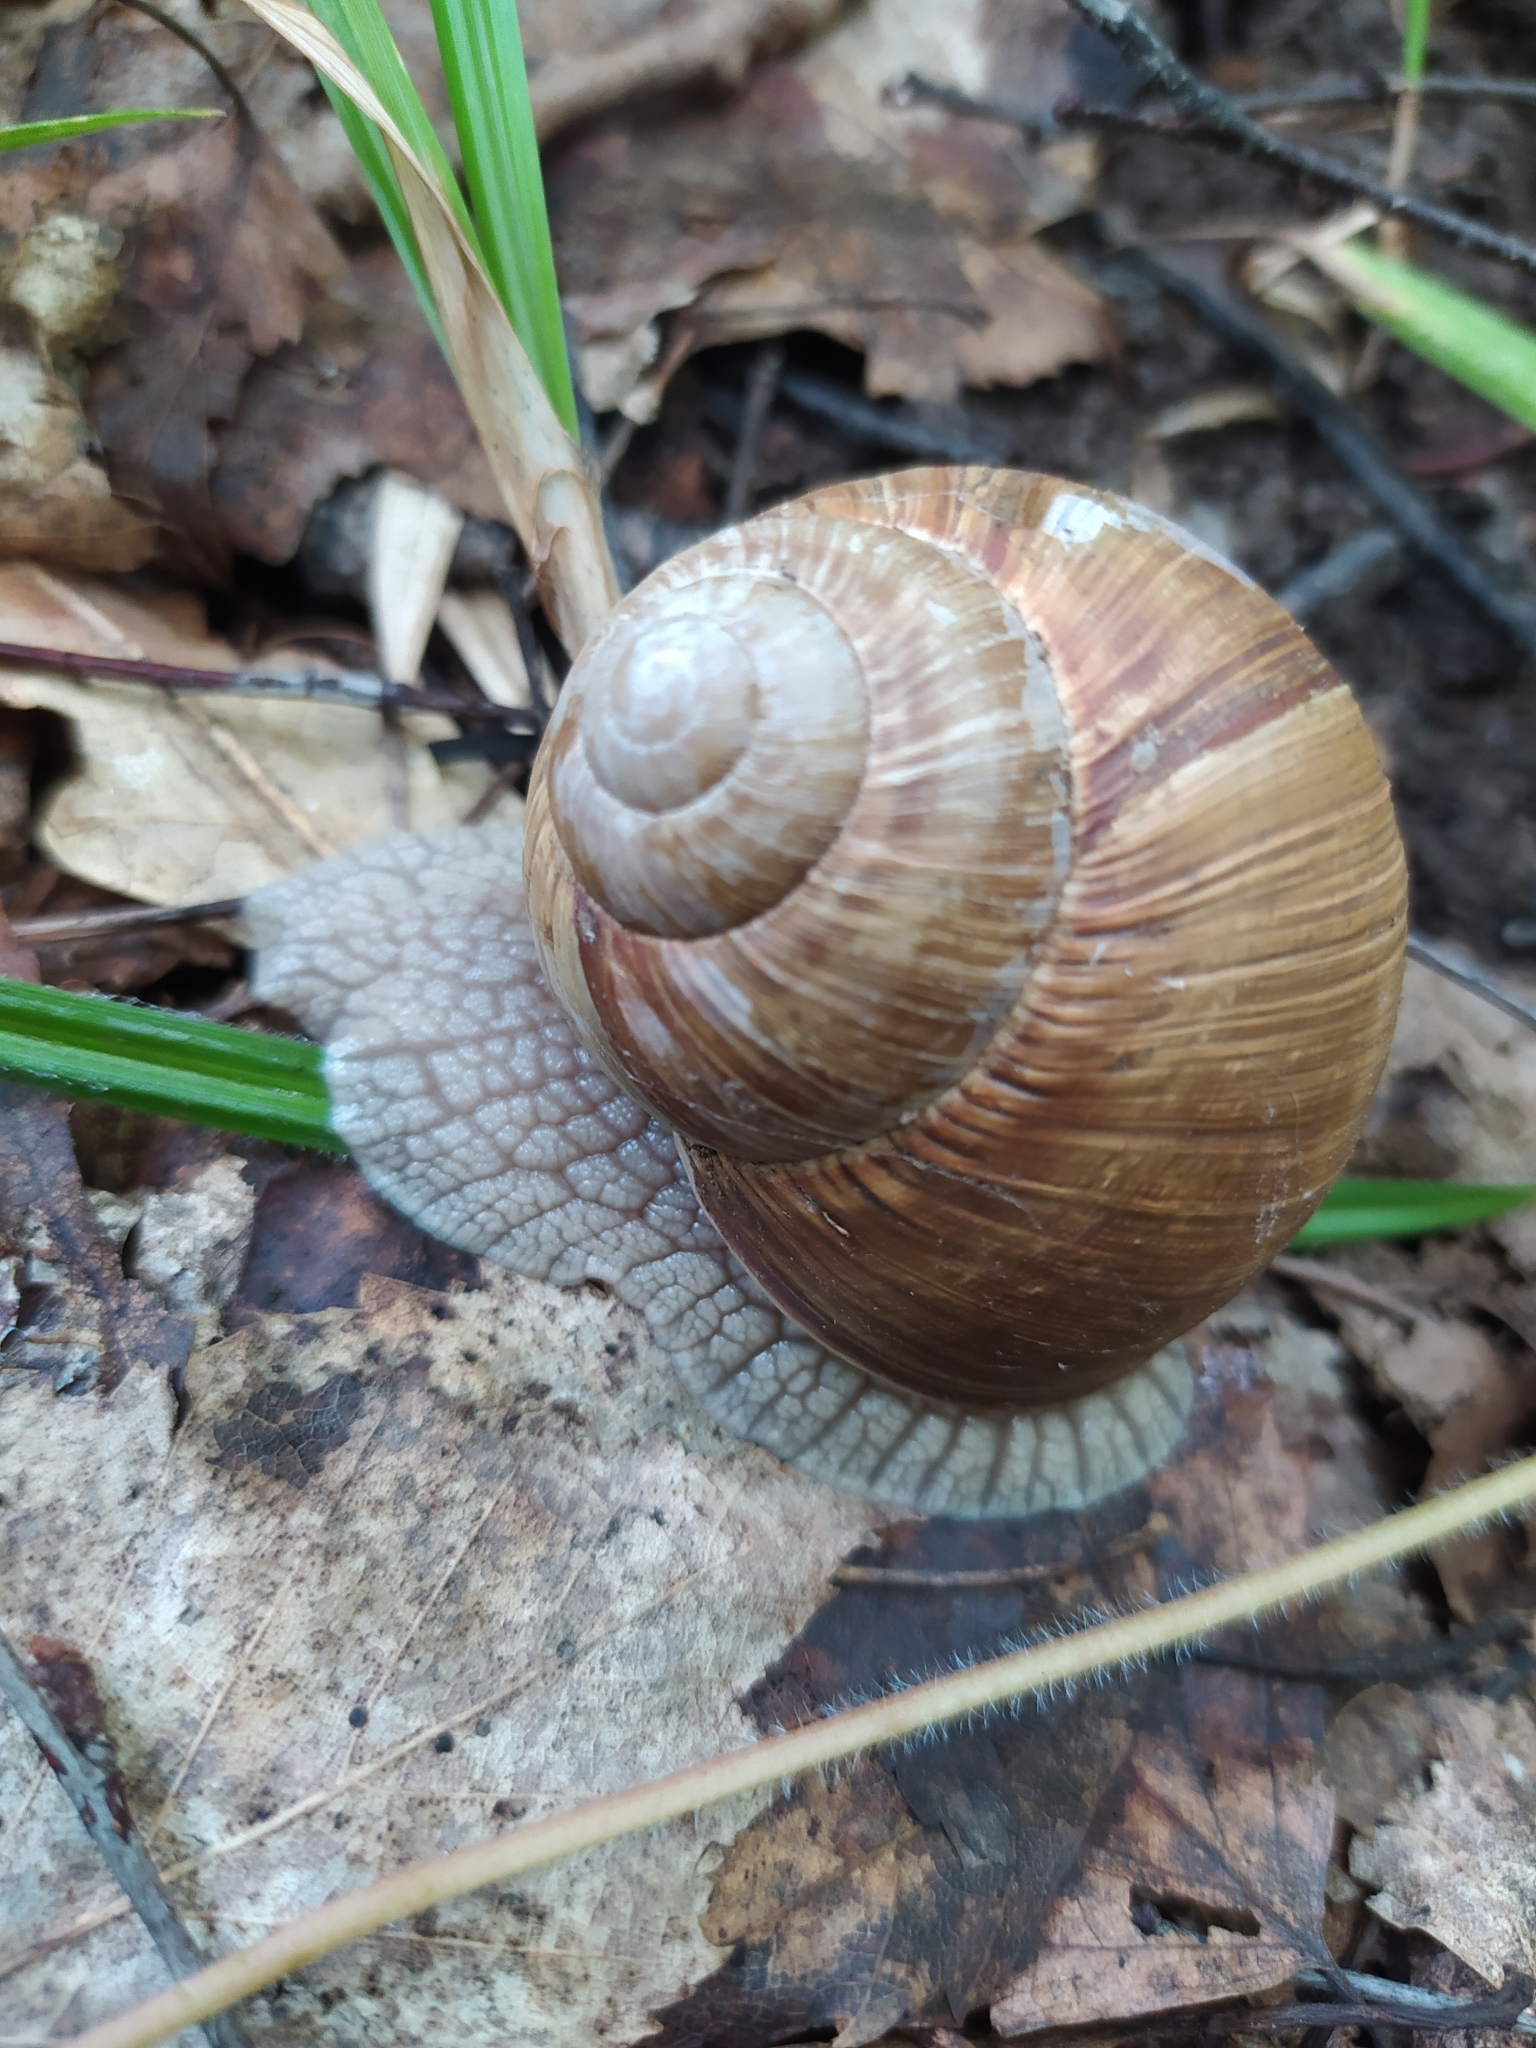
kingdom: Animalia
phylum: Mollusca
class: Gastropoda
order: Stylommatophora
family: Helicidae
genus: Helix
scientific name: Helix pomatia
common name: Roman snail
